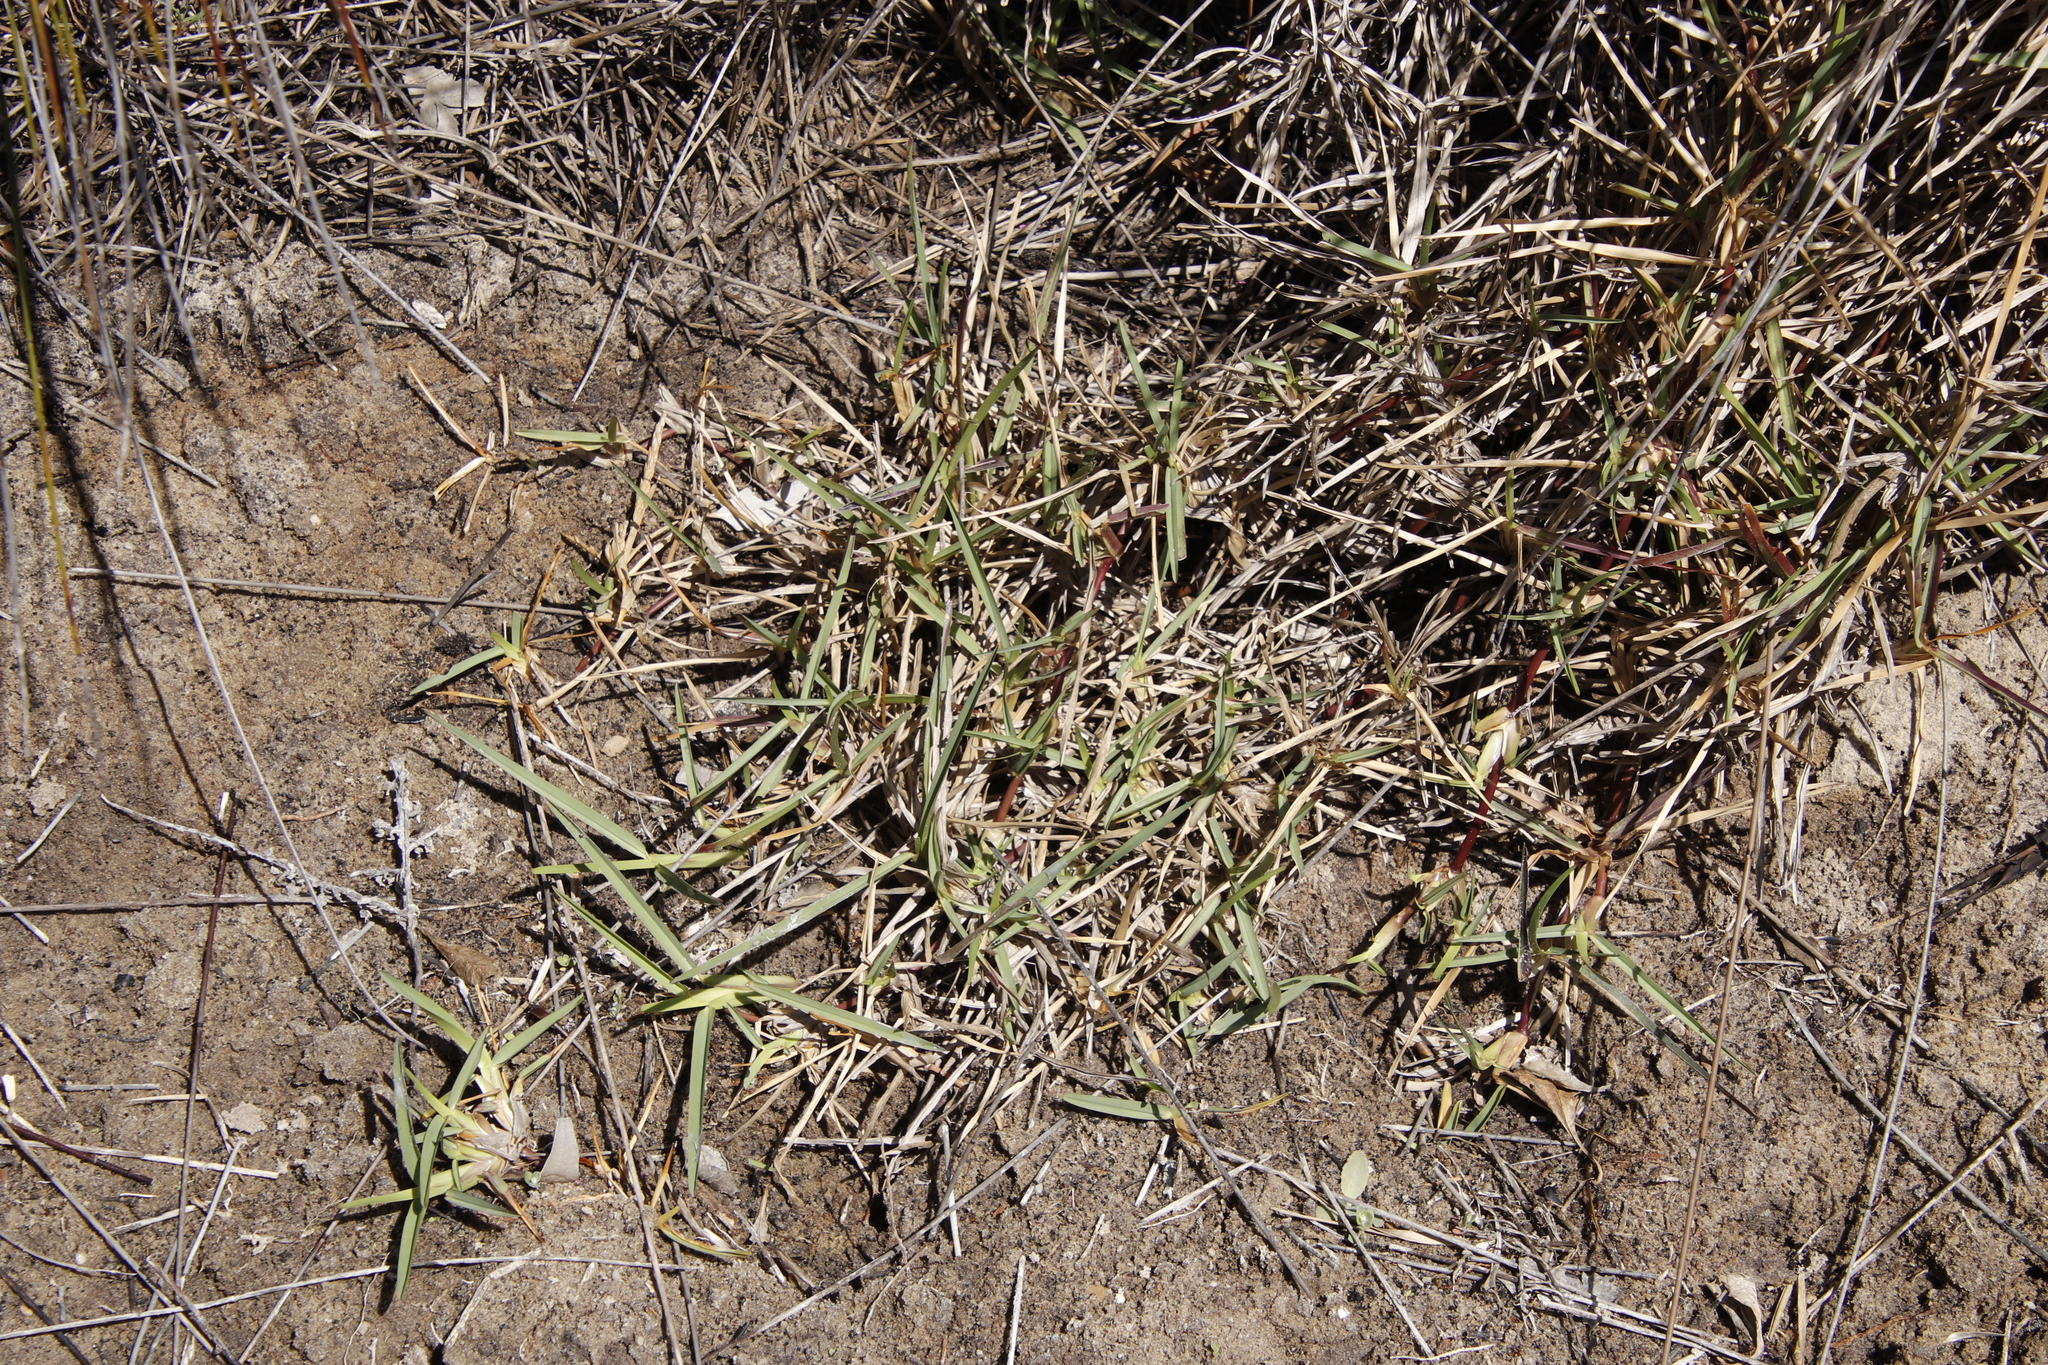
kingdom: Plantae
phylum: Tracheophyta
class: Liliopsida
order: Poales
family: Poaceae
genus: Stenotaphrum
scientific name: Stenotaphrum secundatum
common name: St. augustine grass
